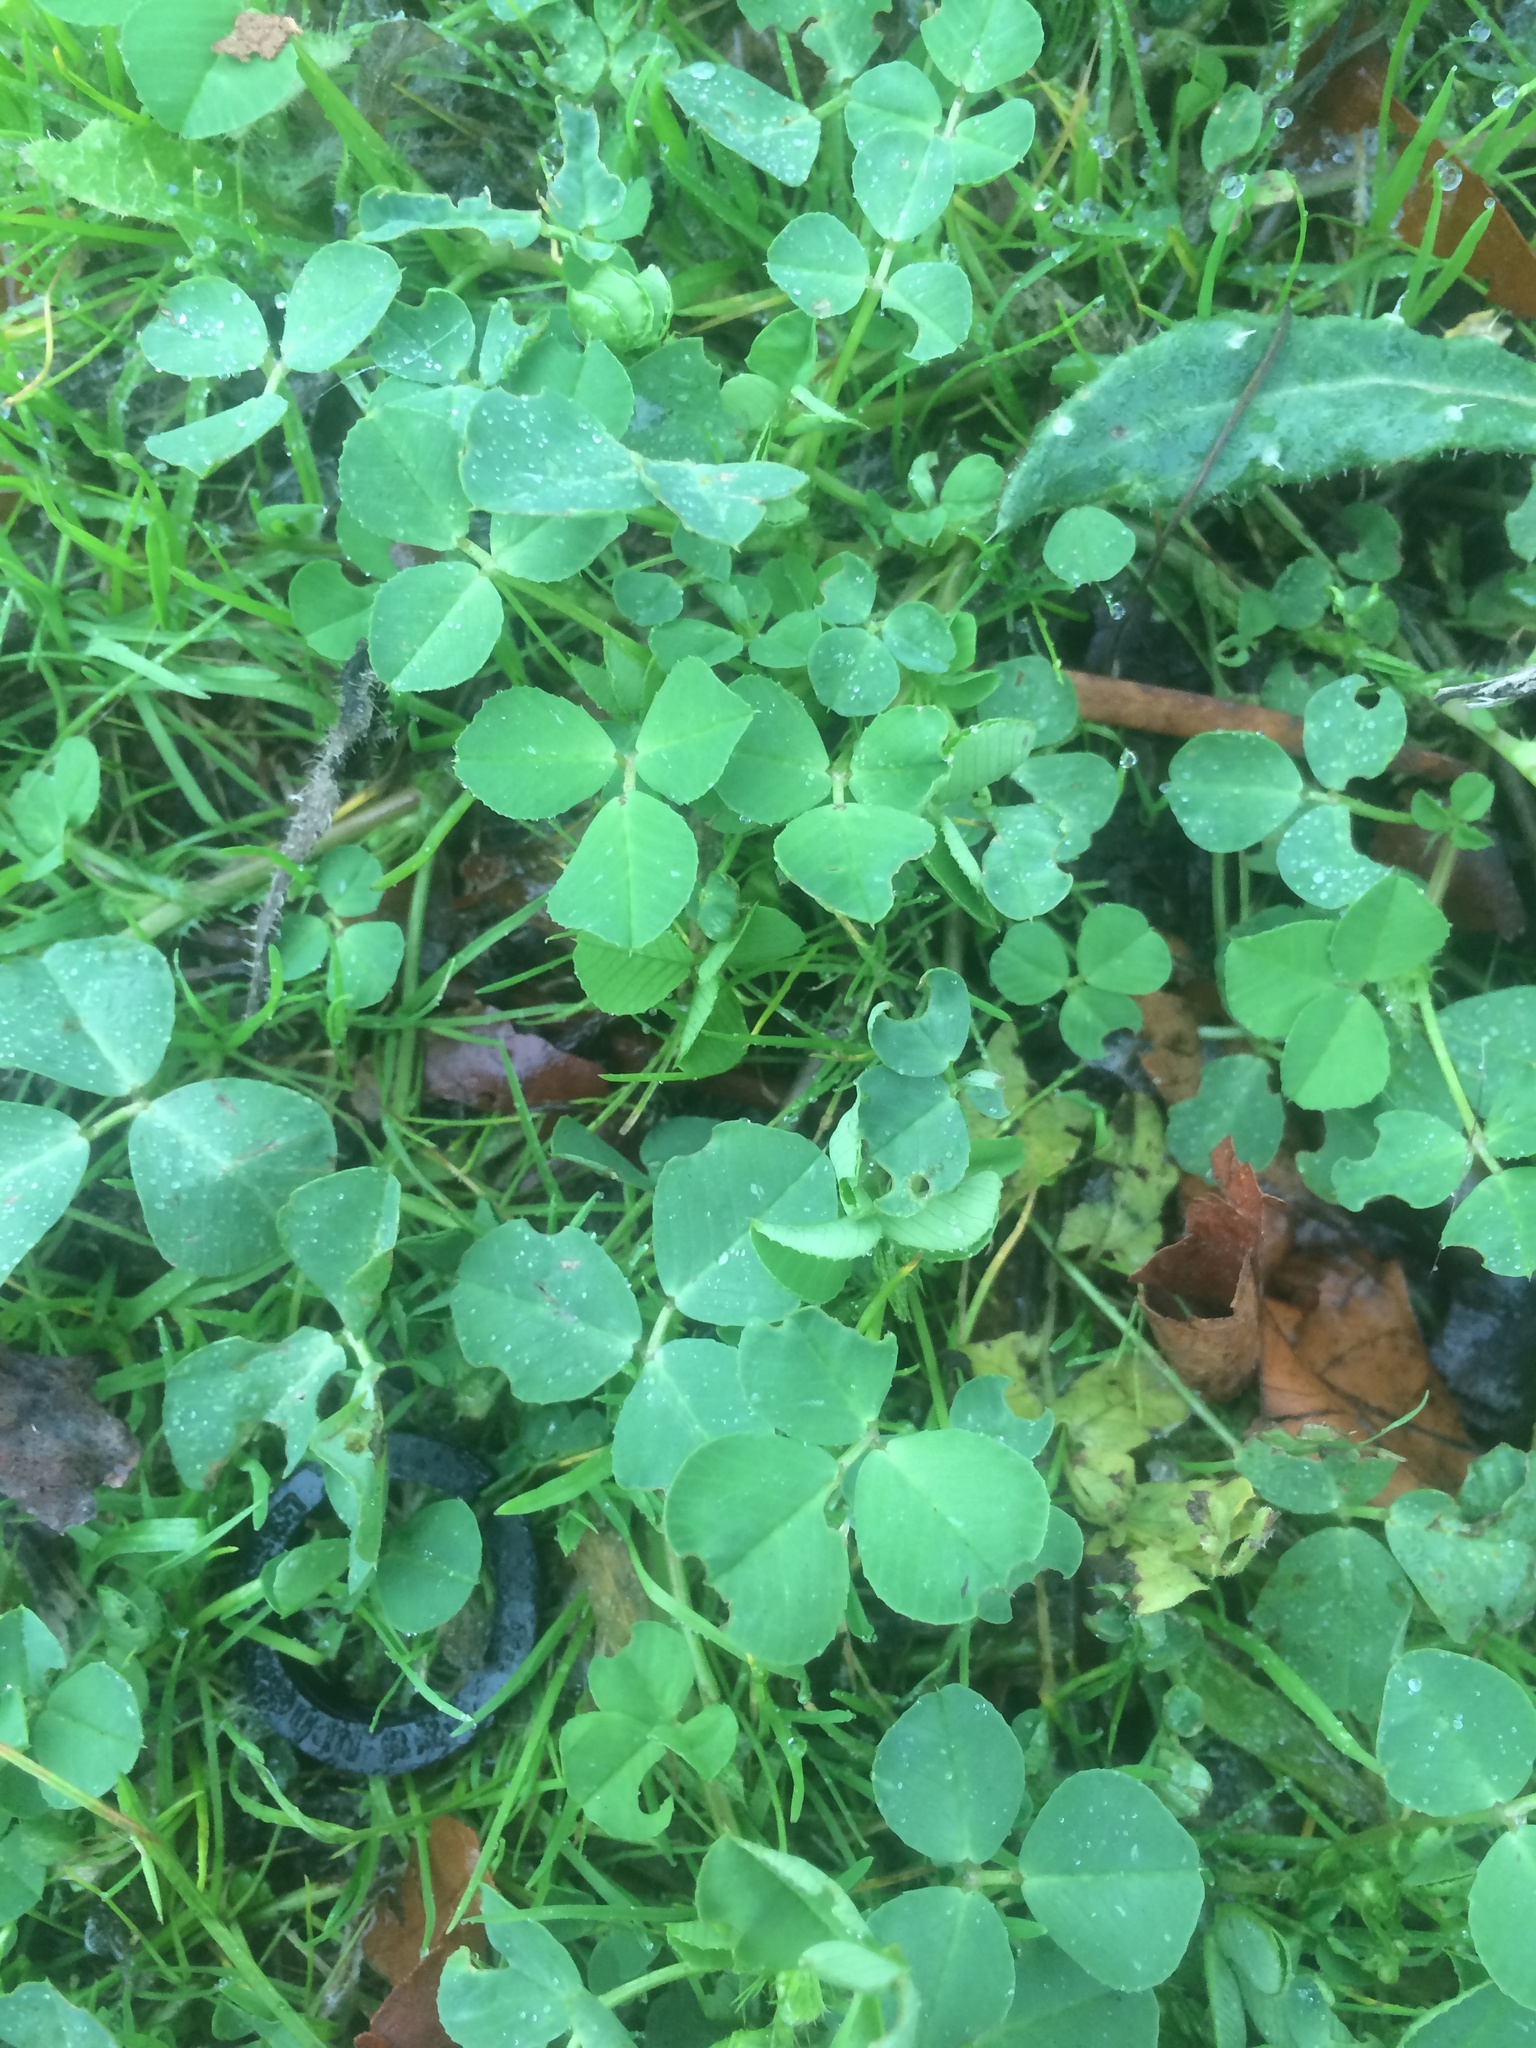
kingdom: Plantae
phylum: Tracheophyta
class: Magnoliopsida
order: Fabales
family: Fabaceae
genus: Medicago
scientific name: Medicago polymorpha
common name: Burclover
